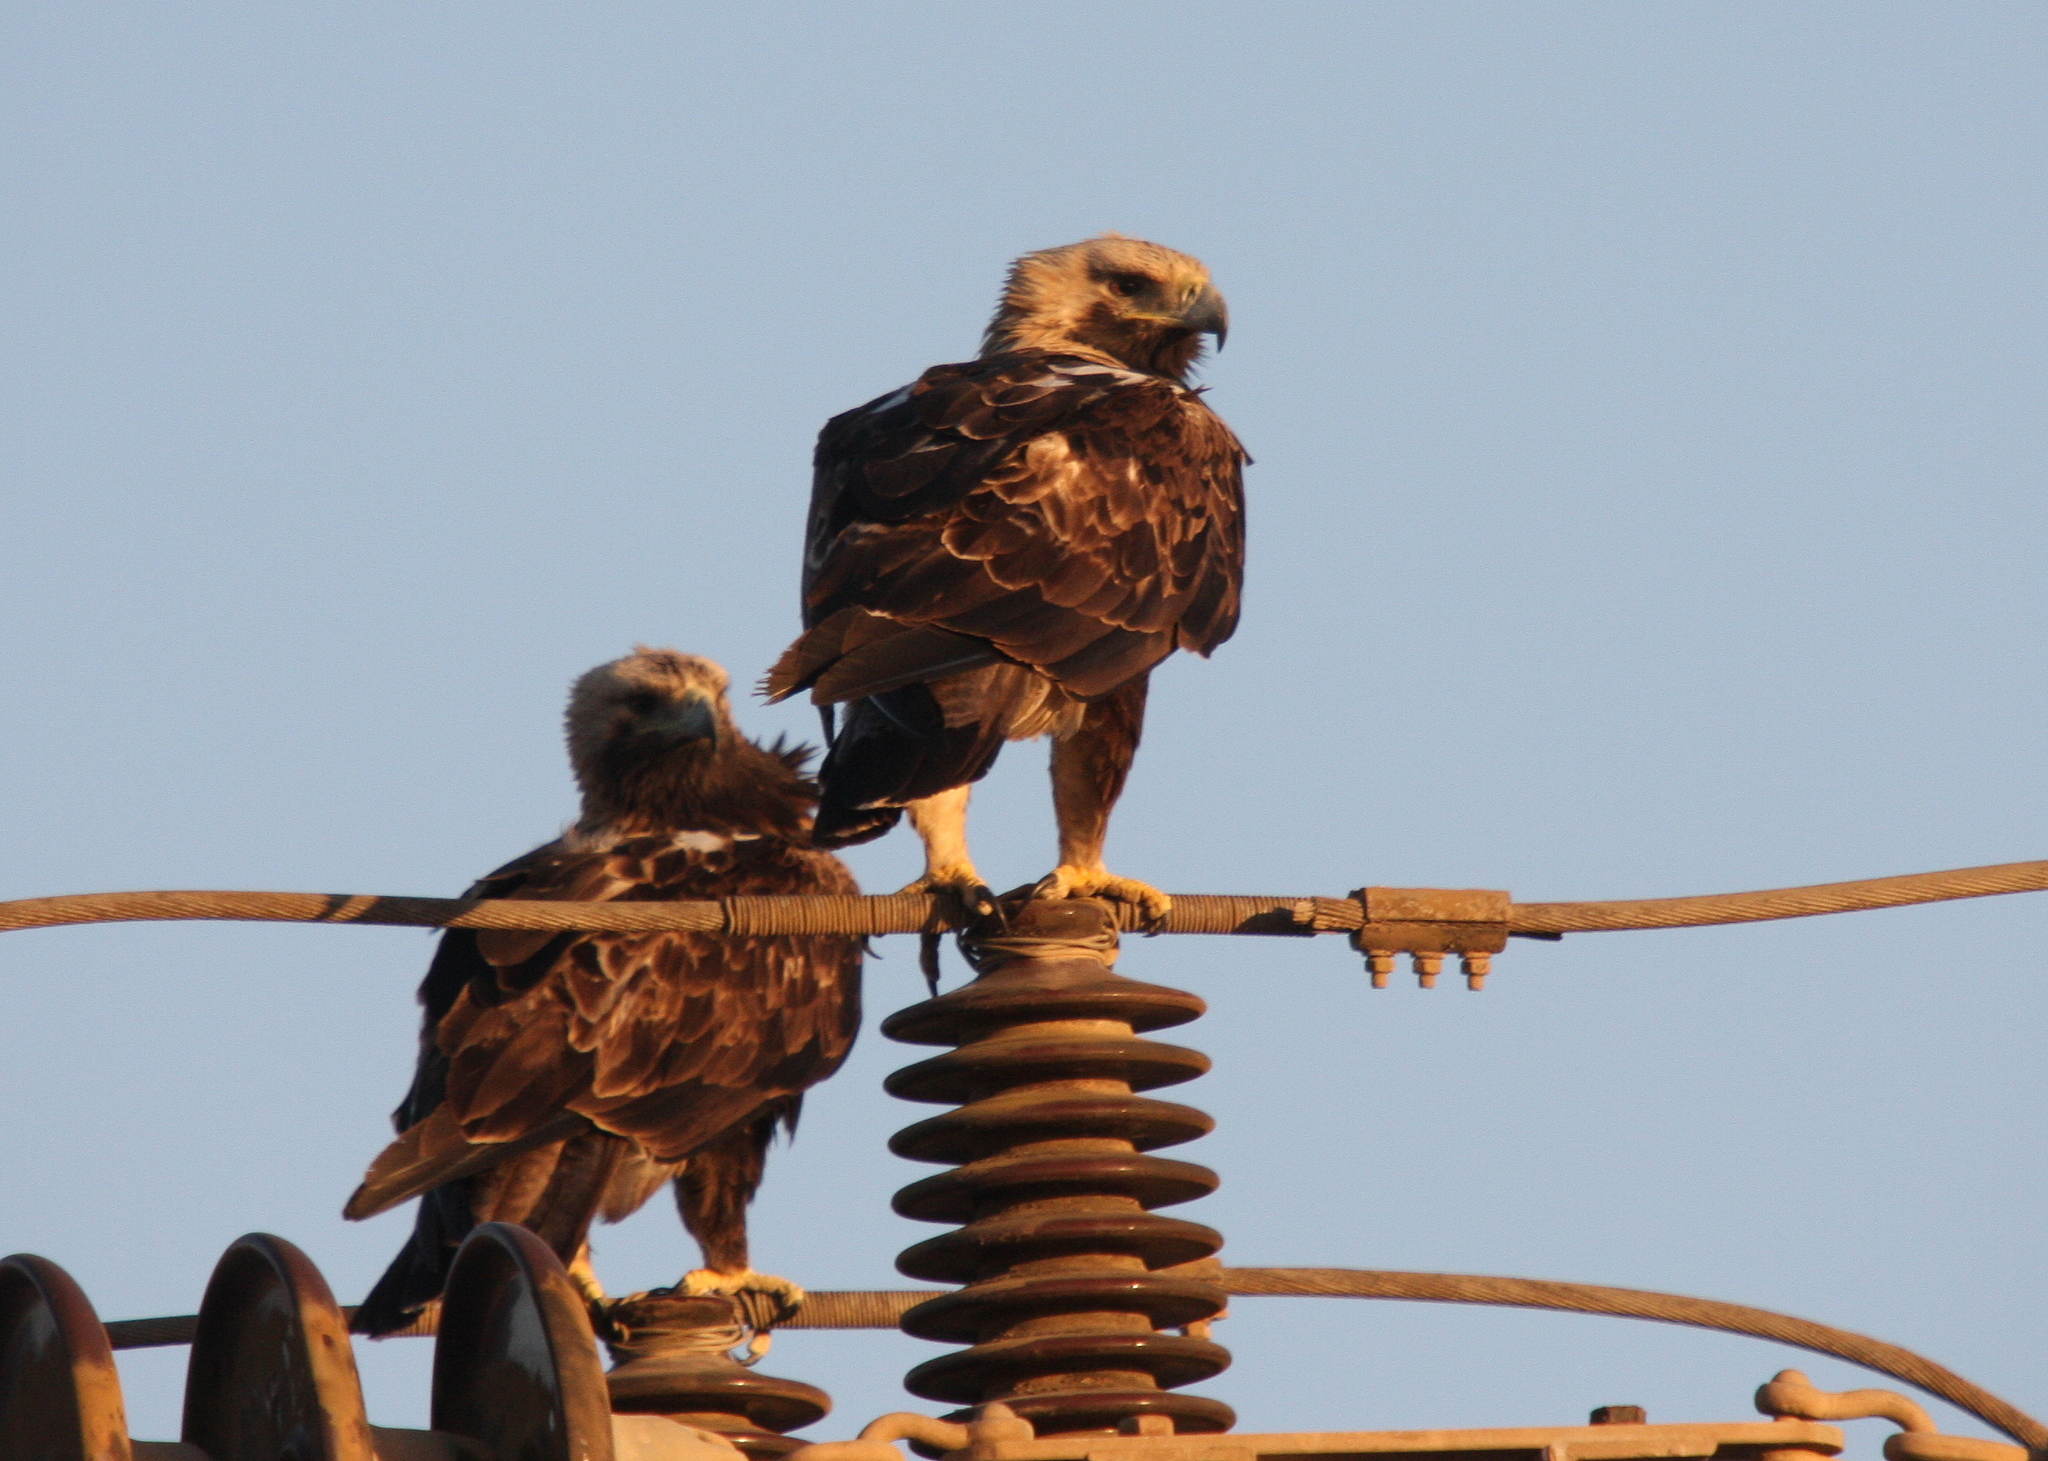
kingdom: Animalia
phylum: Chordata
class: Aves
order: Accipitriformes
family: Accipitridae
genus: Aquila
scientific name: Aquila heliaca
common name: Eastern imperial eagle
